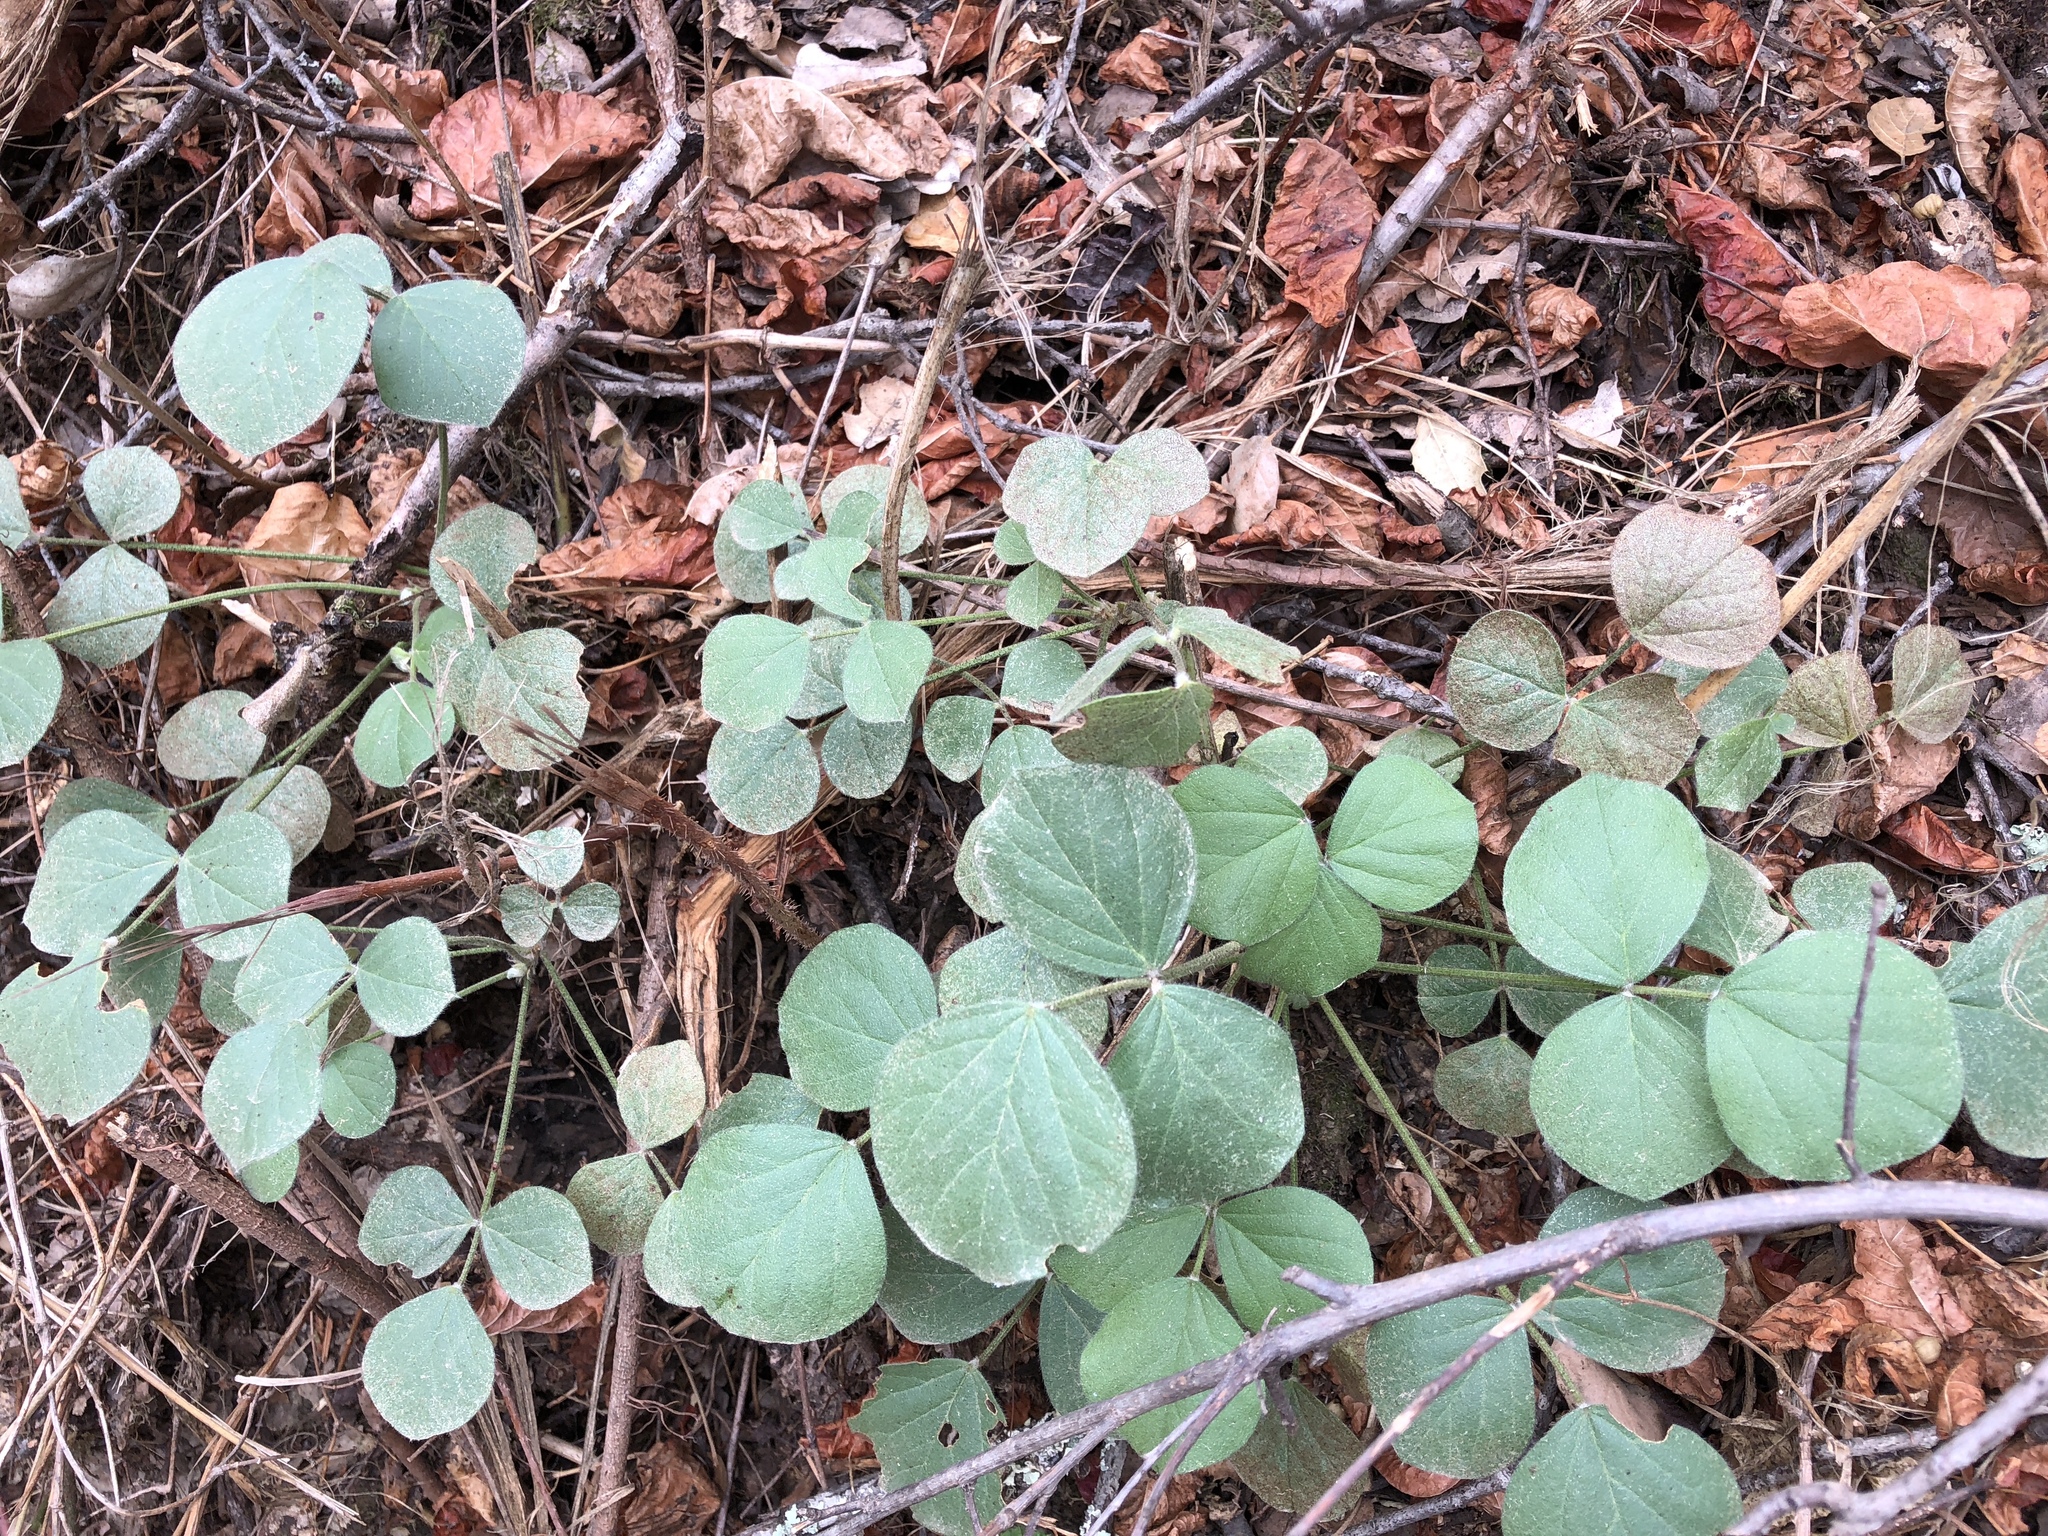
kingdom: Plantae
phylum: Tracheophyta
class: Magnoliopsida
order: Fabales
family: Fabaceae
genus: Hoita
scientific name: Hoita strobilina
